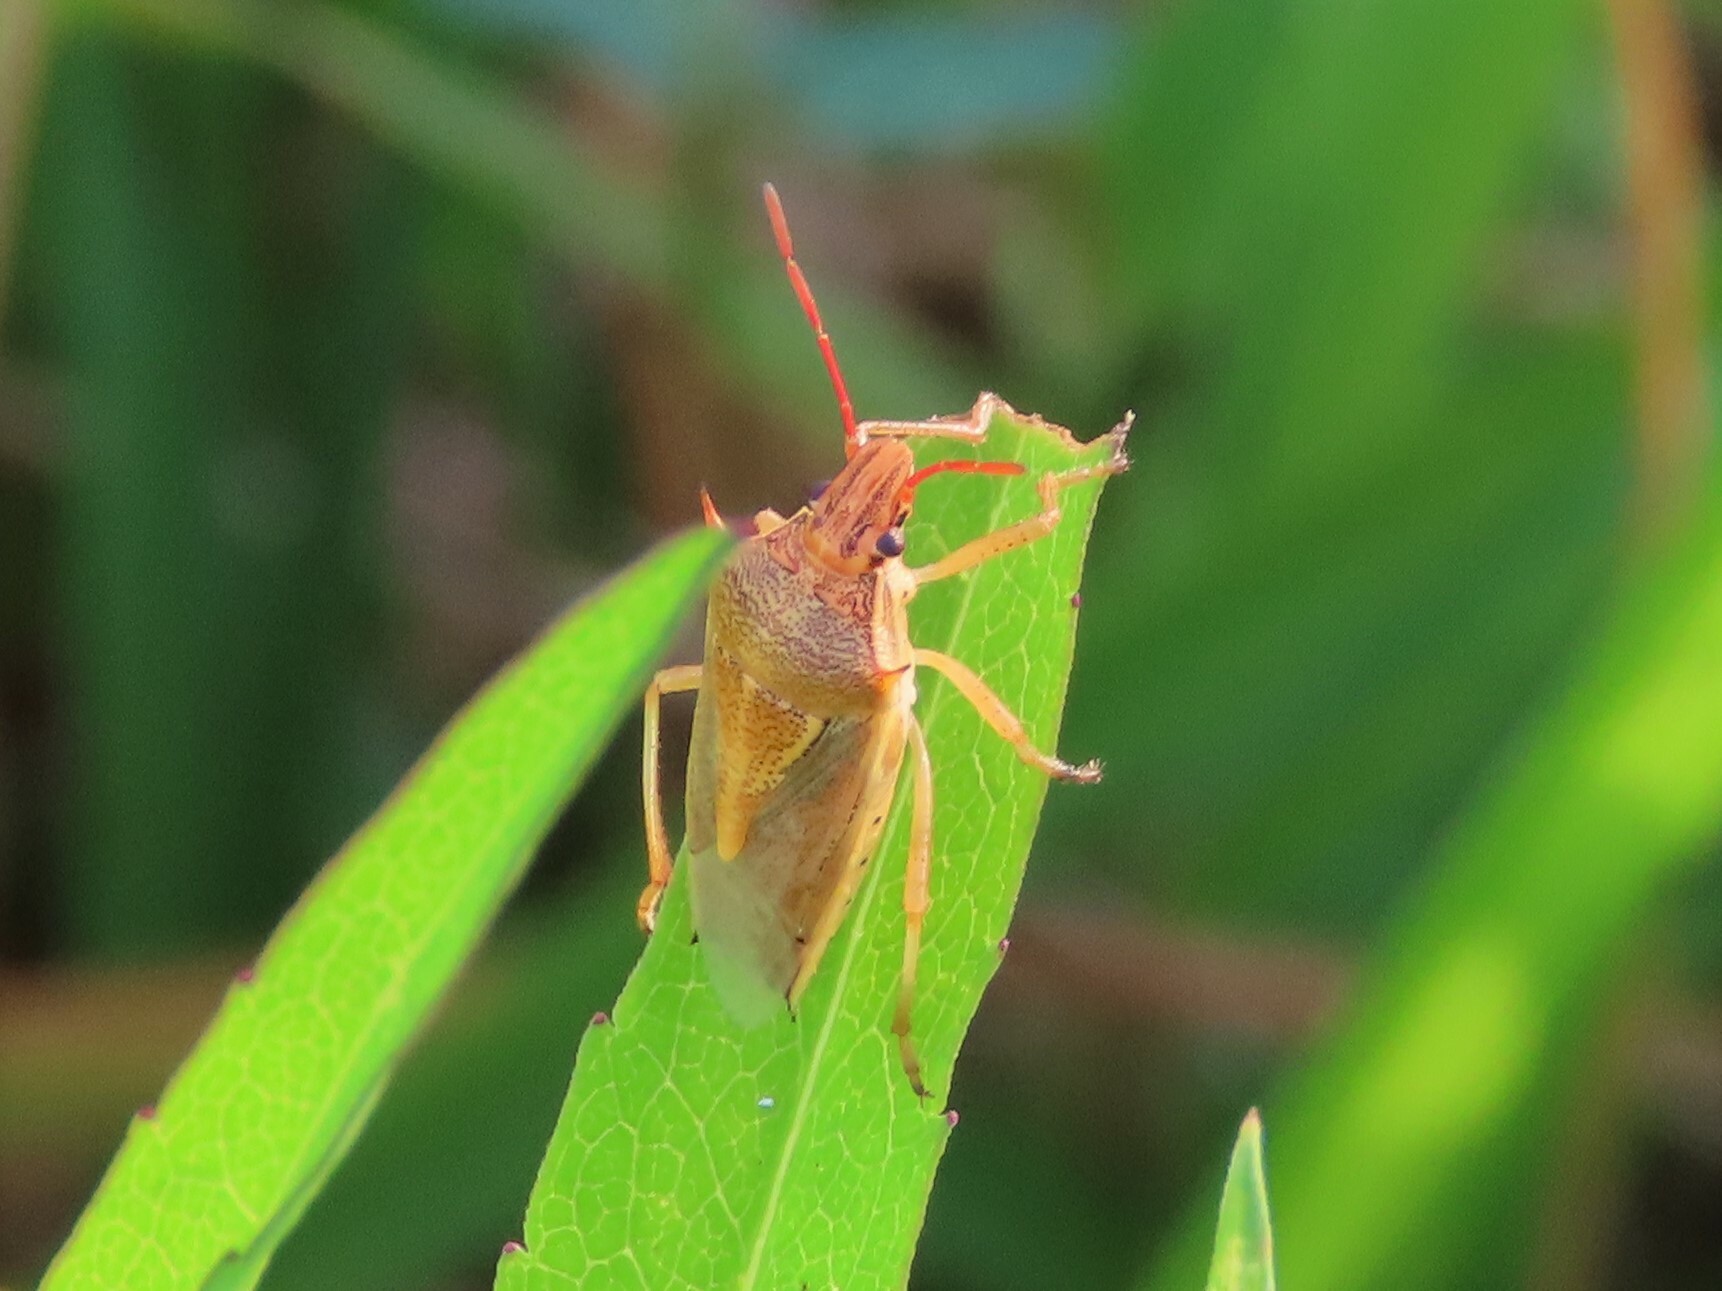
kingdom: Animalia
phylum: Arthropoda
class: Insecta
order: Hemiptera
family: Pentatomidae
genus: Oebalus
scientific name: Oebalus pugnax
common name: Rice stink bug
